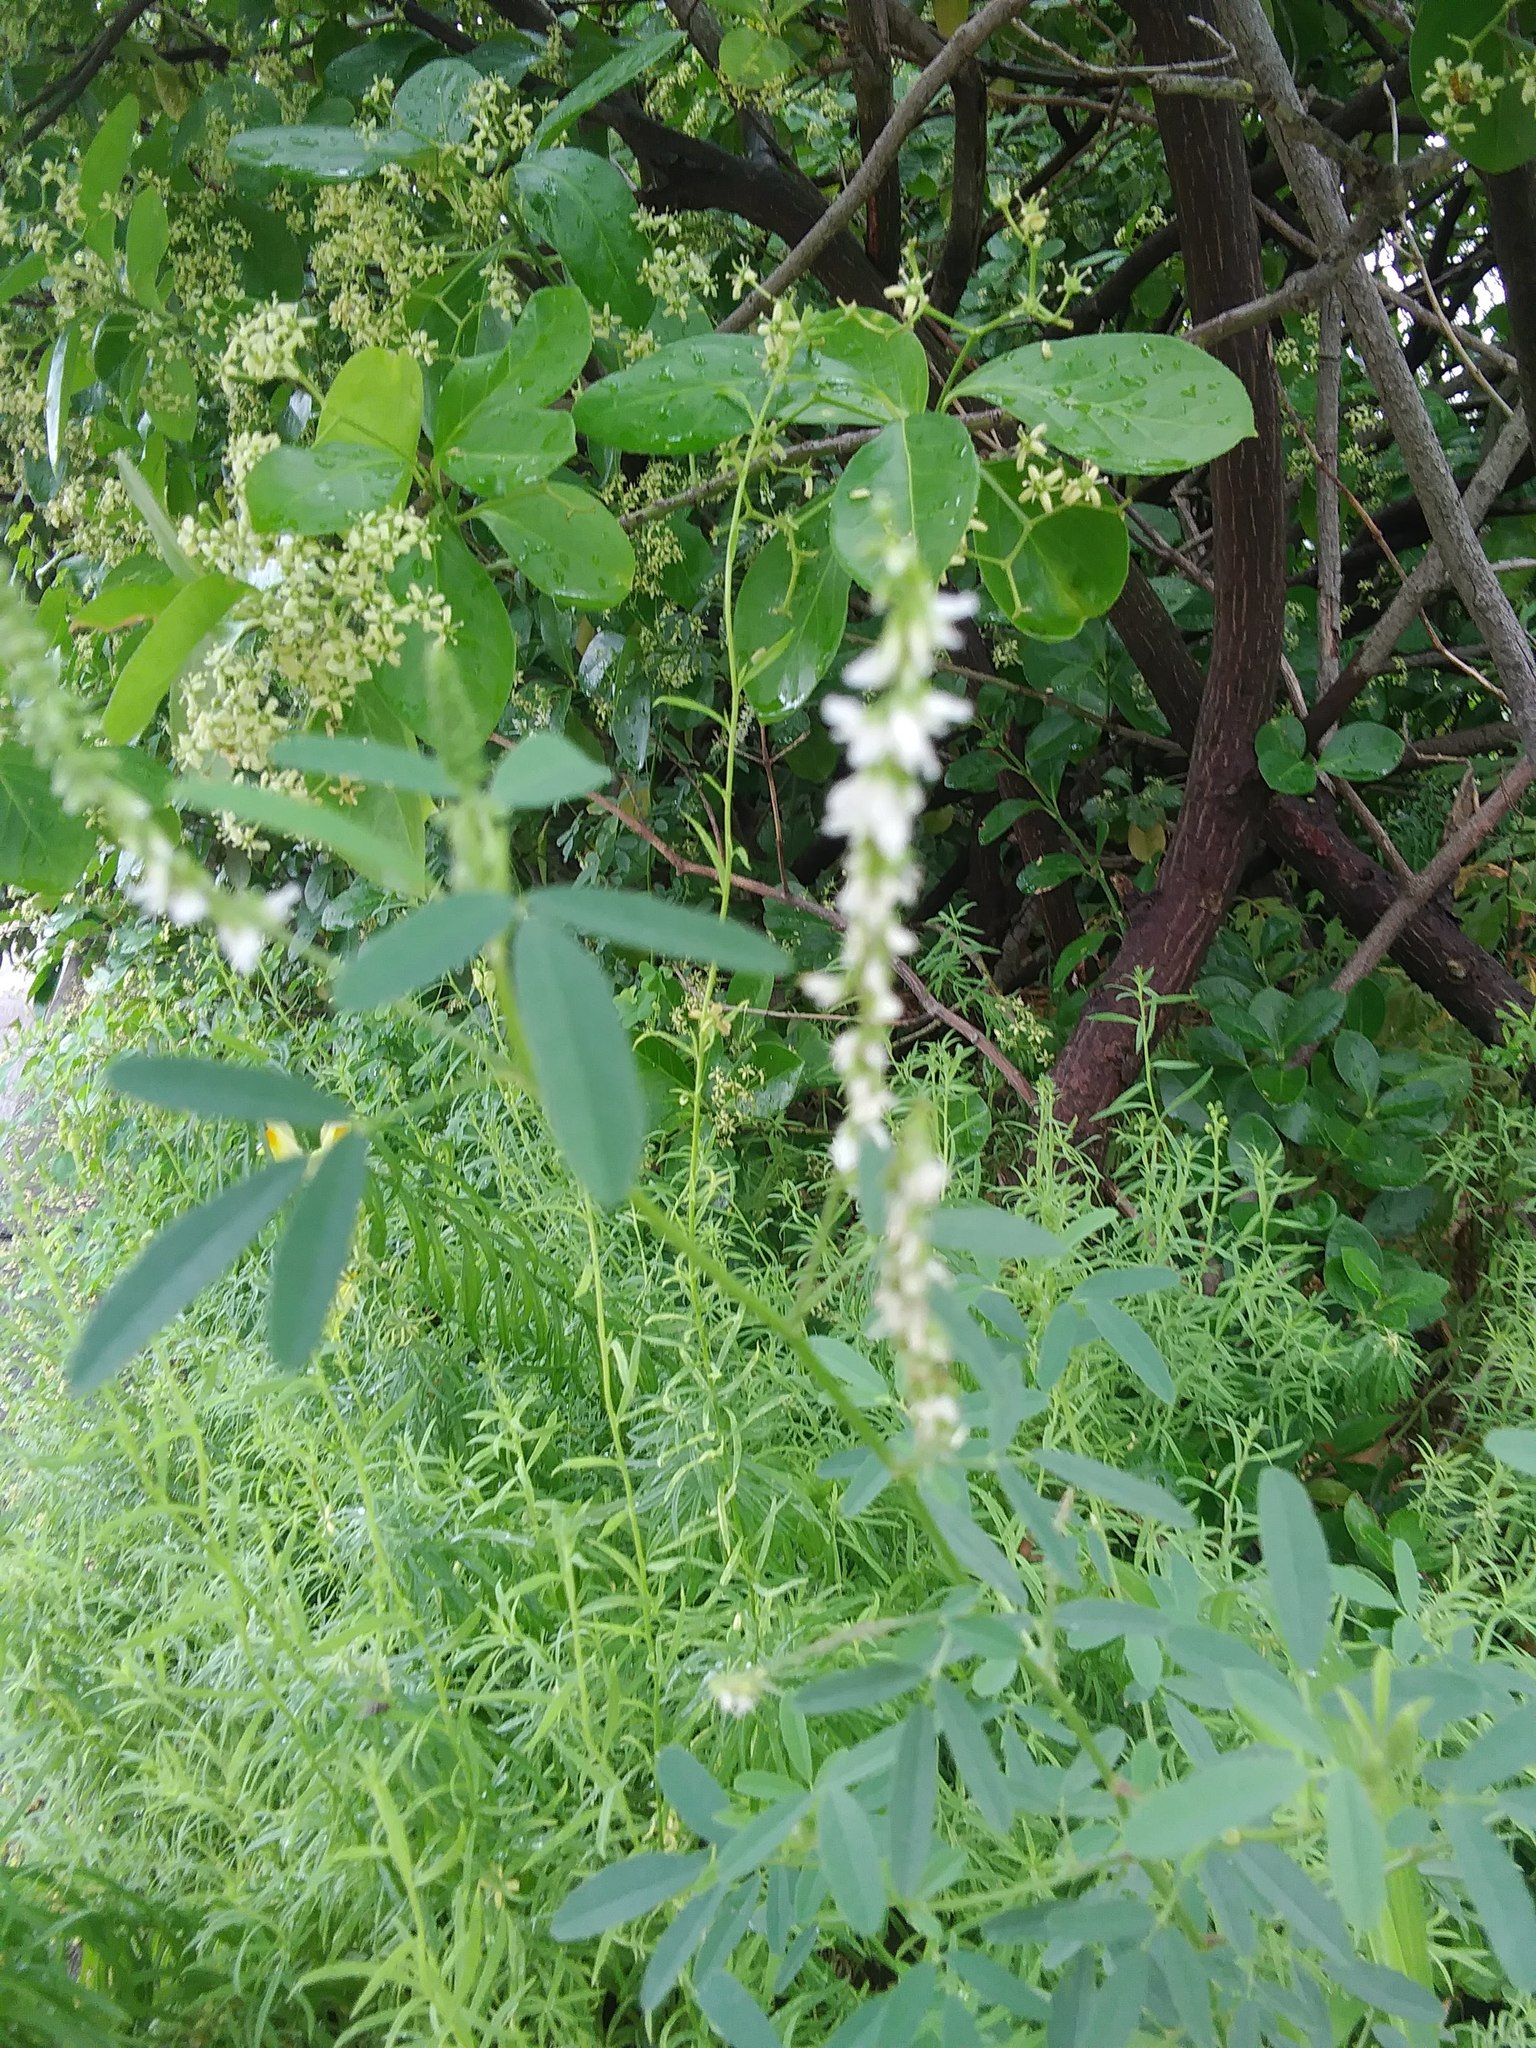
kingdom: Plantae
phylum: Tracheophyta
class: Magnoliopsida
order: Fabales
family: Fabaceae
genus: Melilotus
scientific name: Melilotus albus
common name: White melilot
